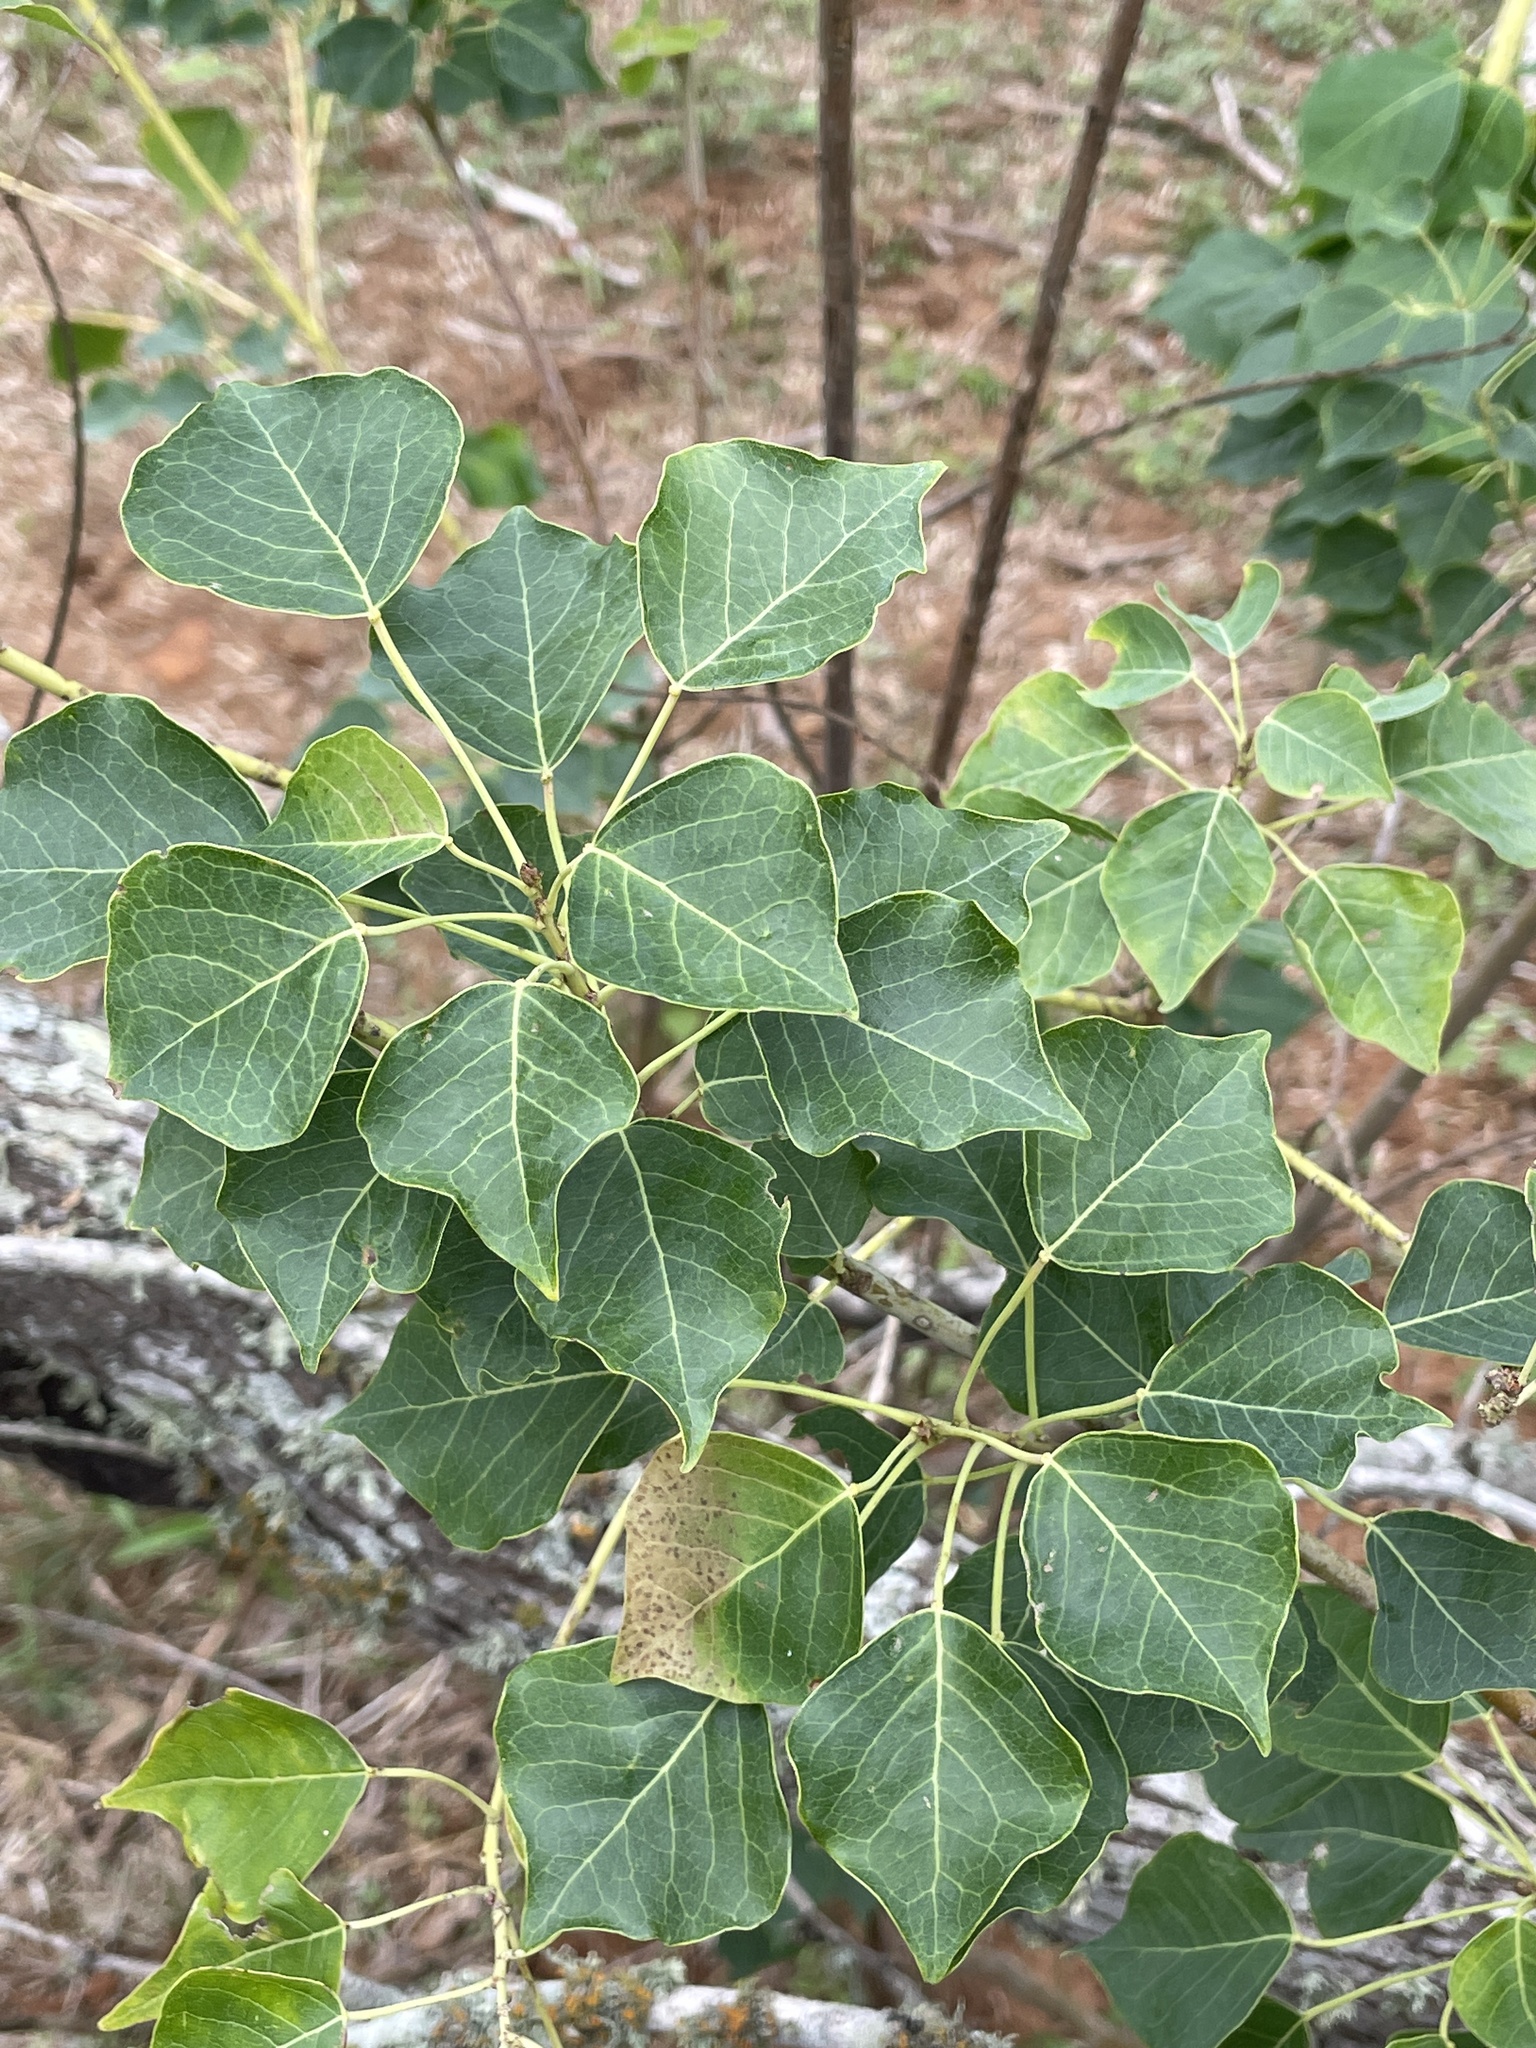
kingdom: Plantae
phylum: Tracheophyta
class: Magnoliopsida
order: Malpighiales
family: Euphorbiaceae
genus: Triadica
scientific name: Triadica sebifera
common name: Chinese tallow
